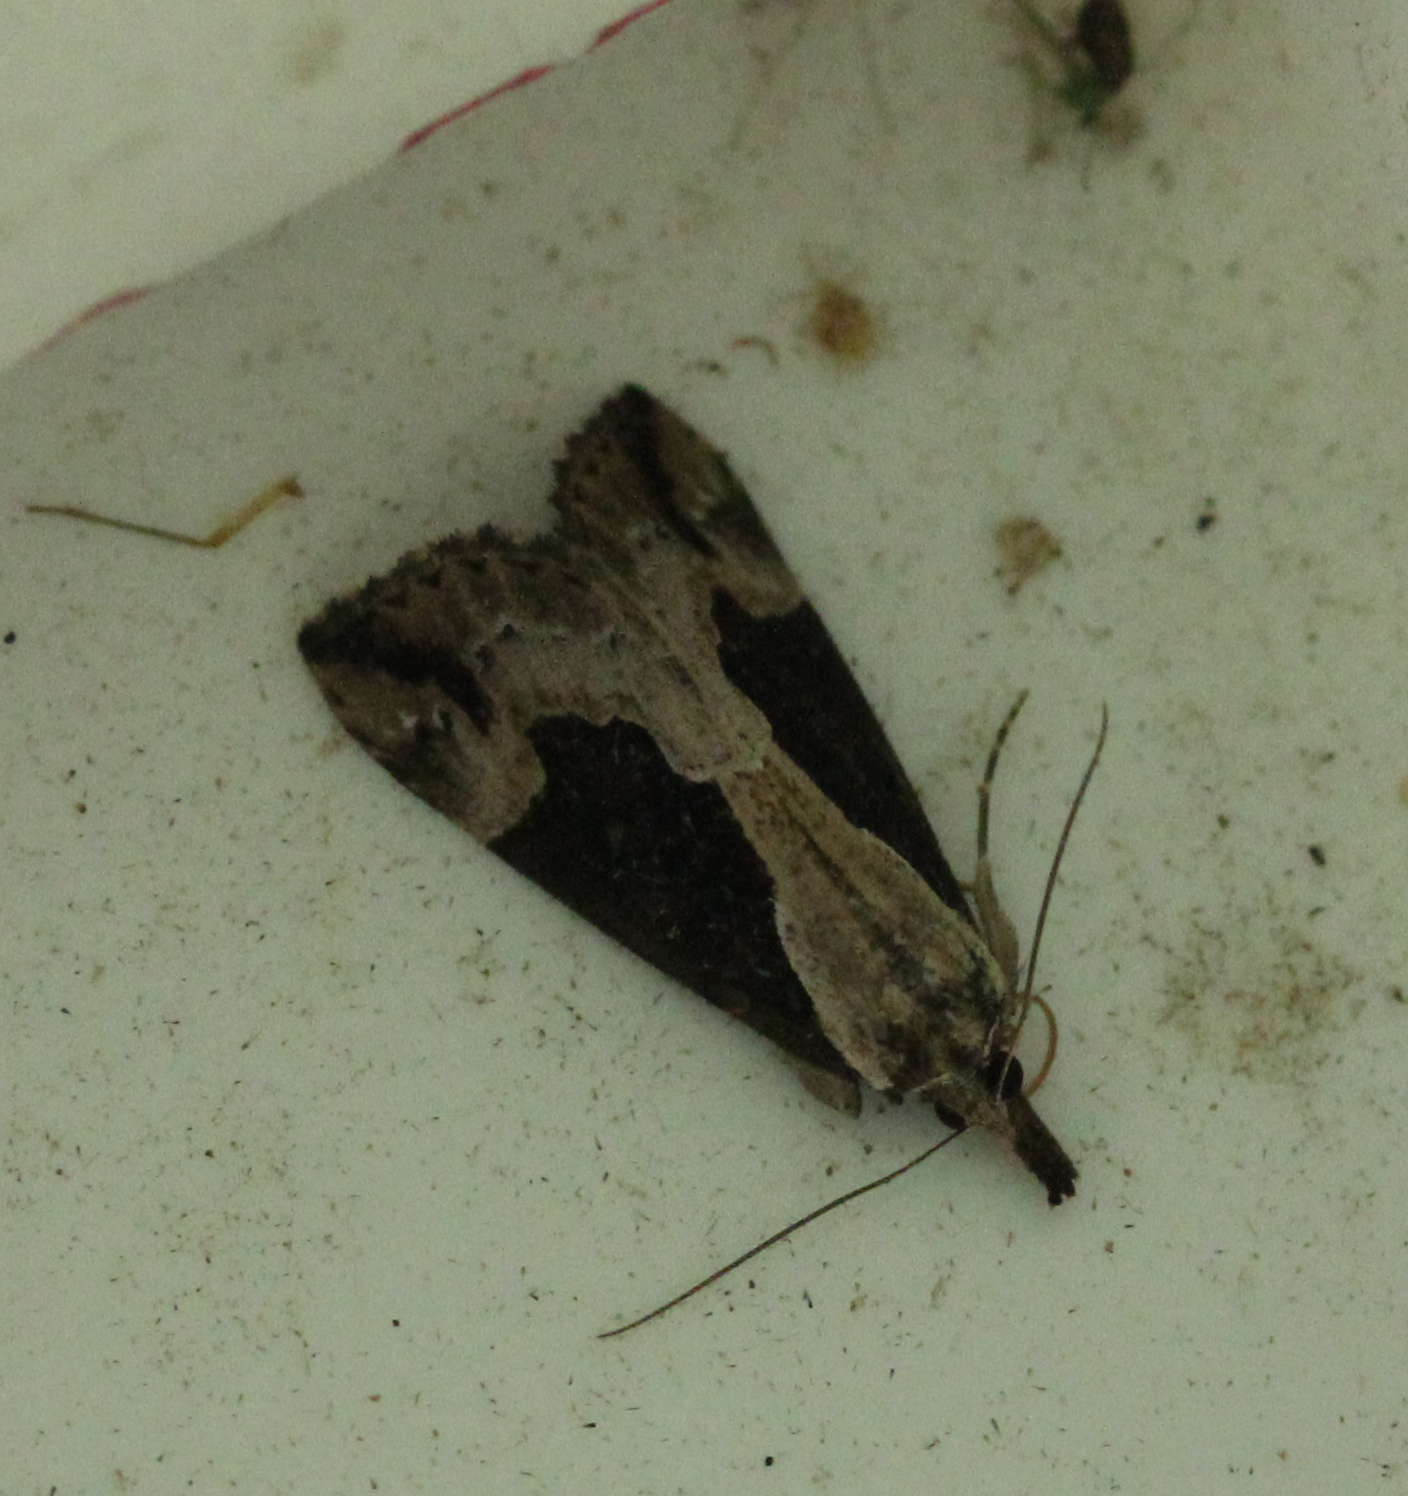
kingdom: Animalia
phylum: Arthropoda
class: Insecta
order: Lepidoptera
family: Erebidae
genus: Hypena
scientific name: Hypena baltimoralis
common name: Baltimore snout
